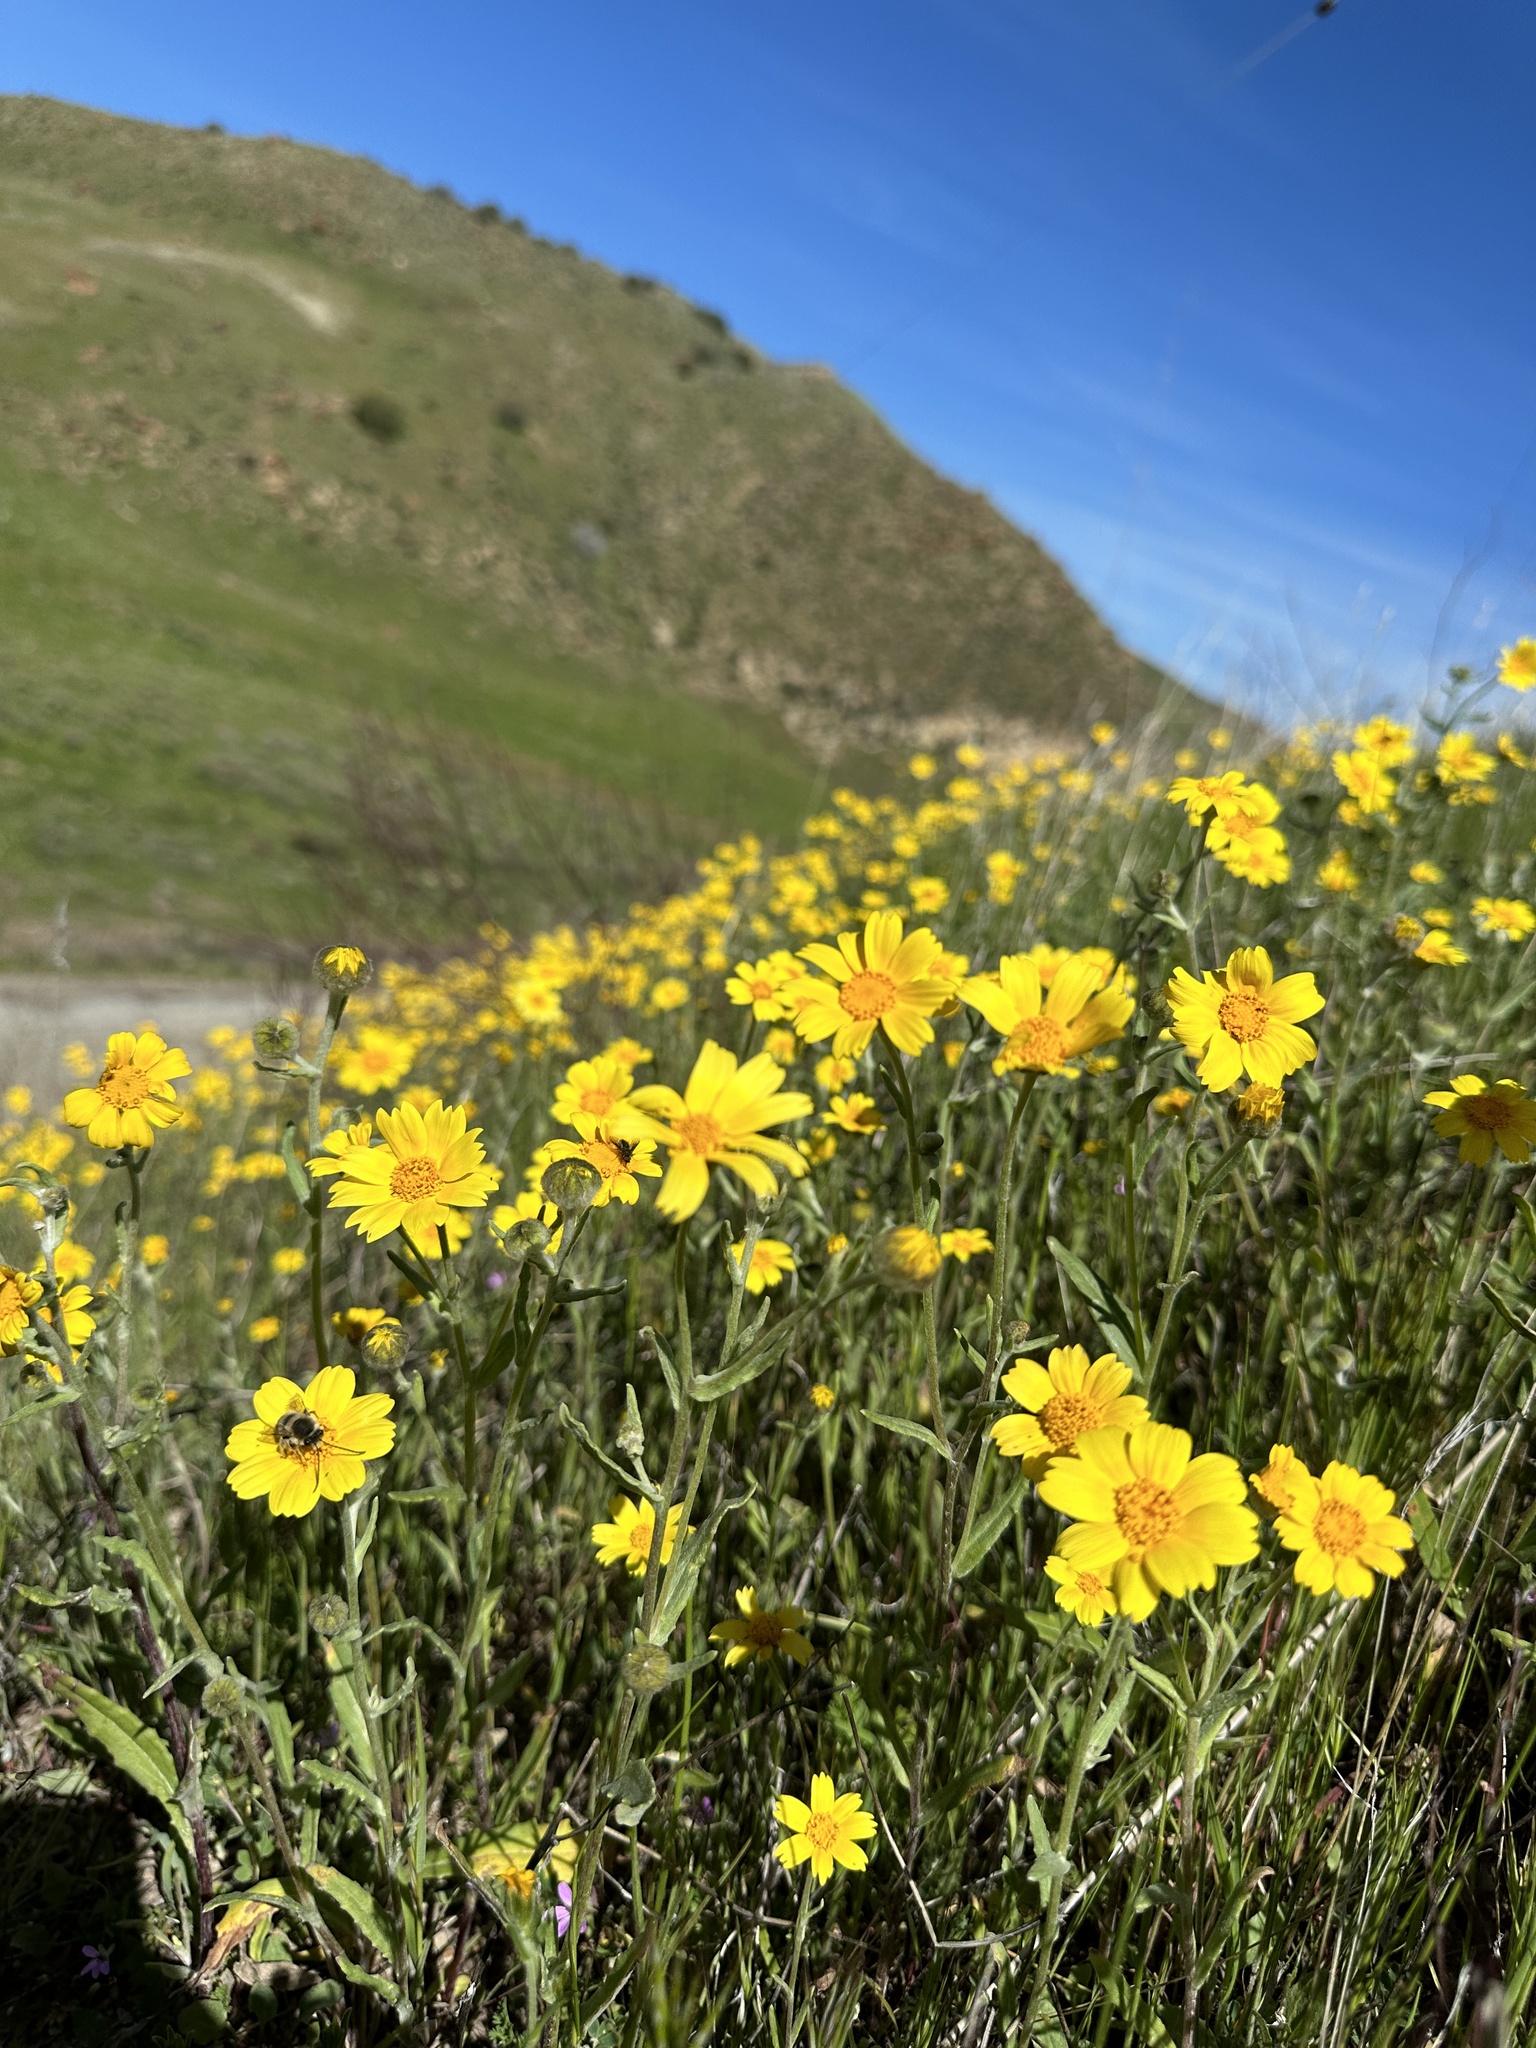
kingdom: Plantae
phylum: Tracheophyta
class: Magnoliopsida
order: Asterales
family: Asteraceae
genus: Monolopia
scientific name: Monolopia lanceolata
